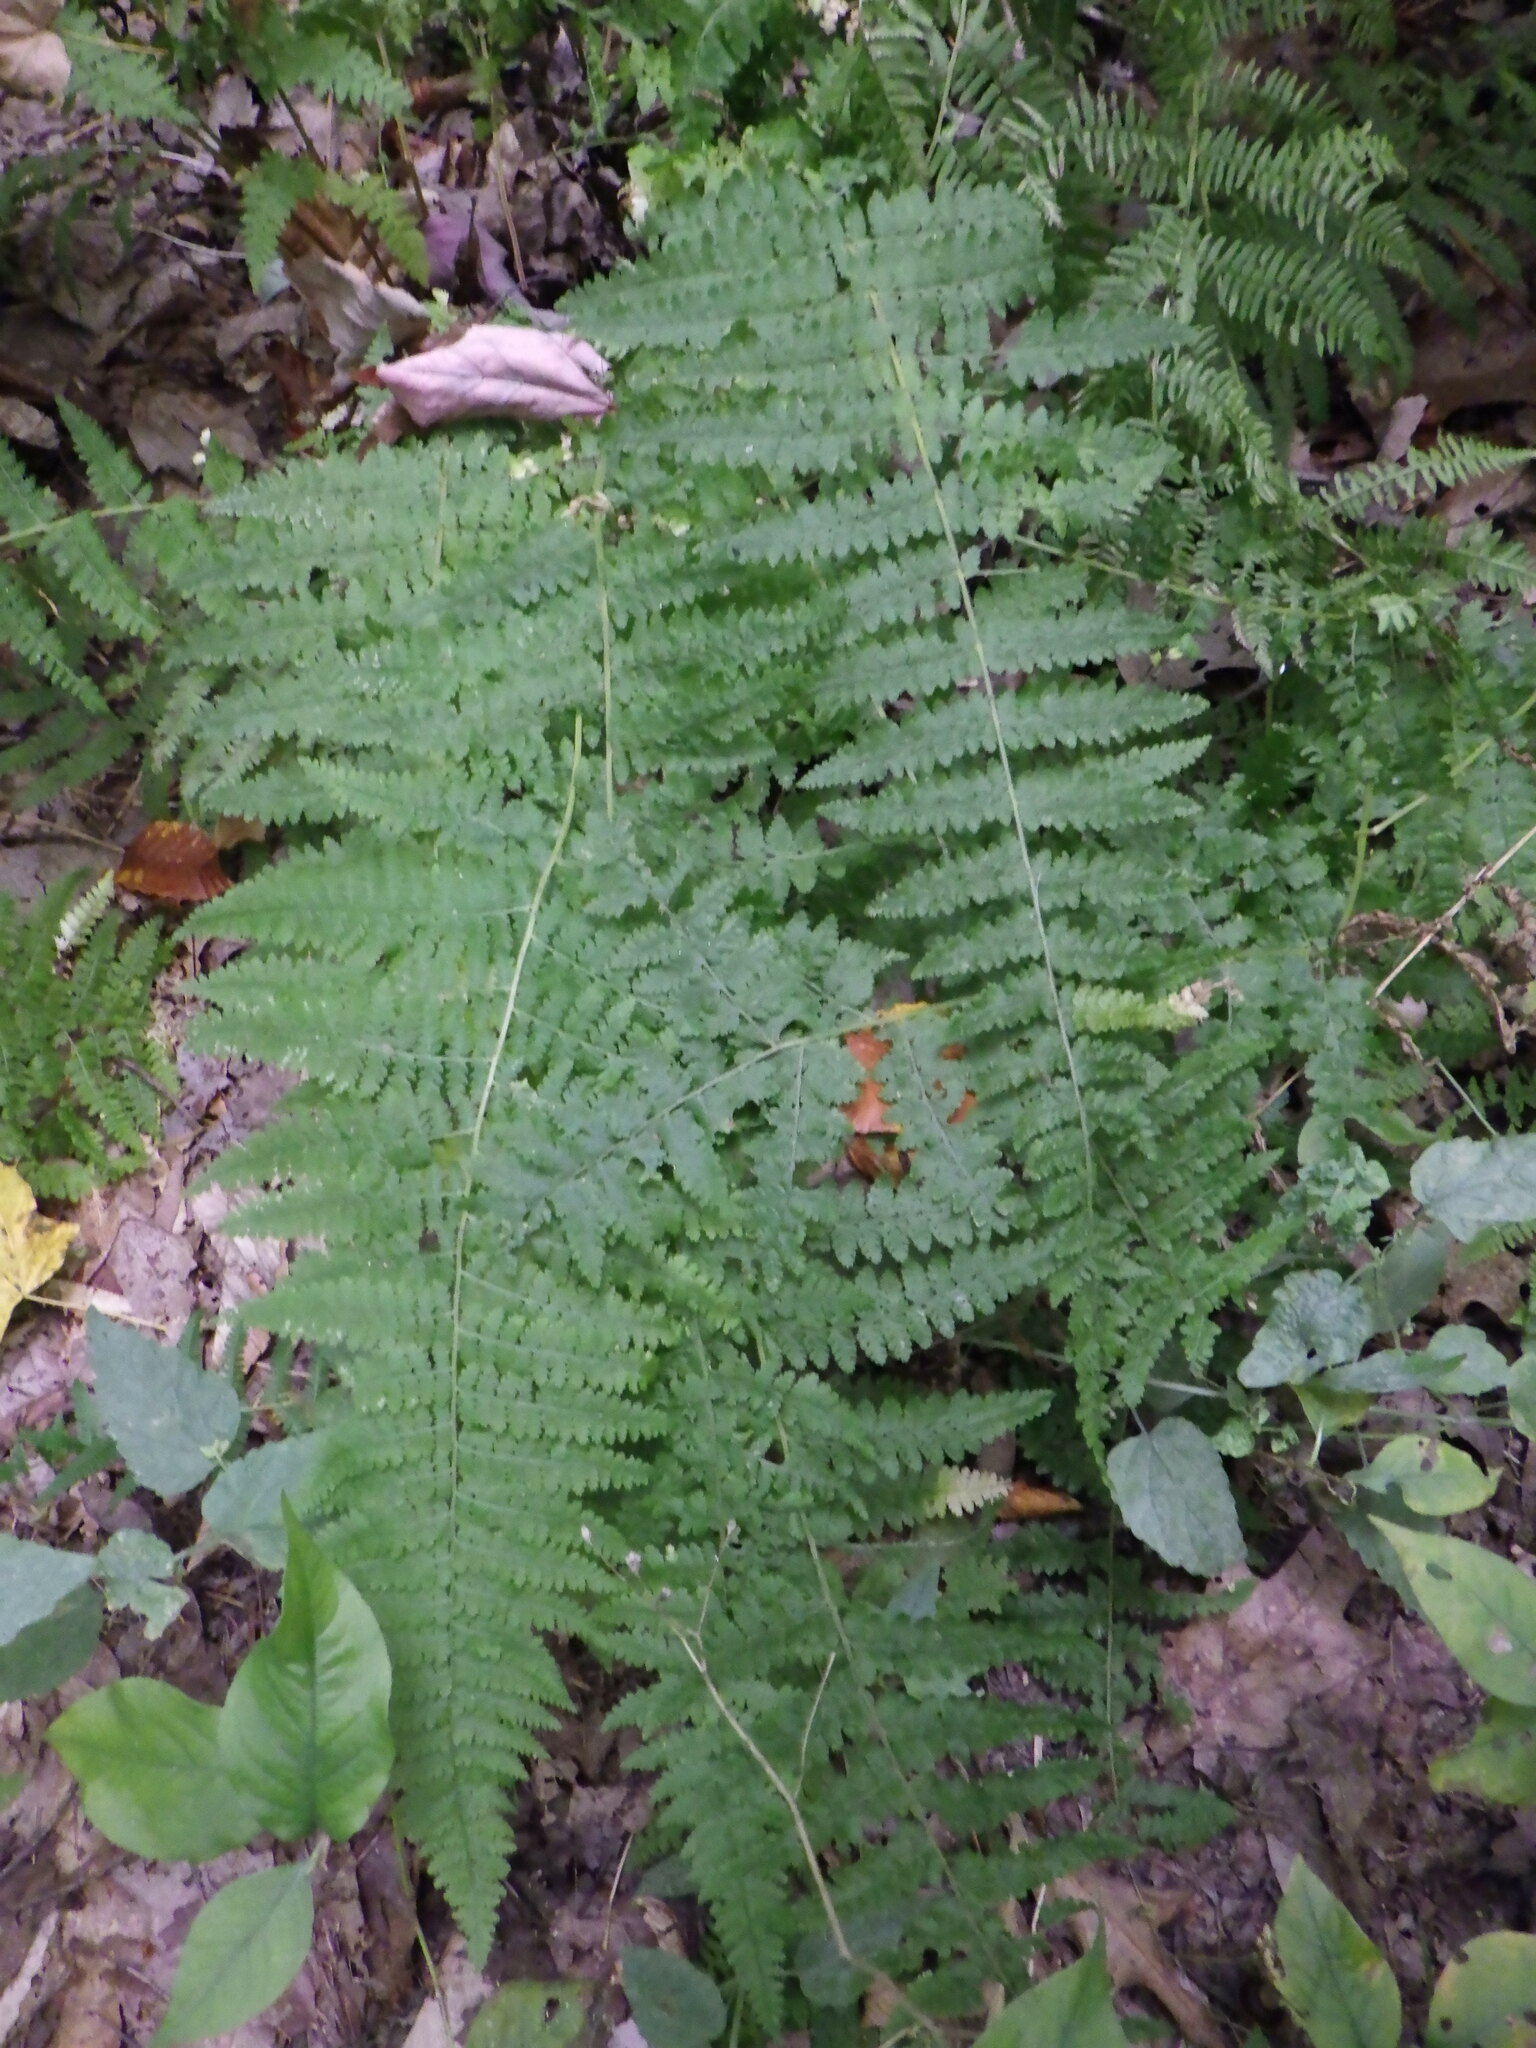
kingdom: Plantae
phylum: Tracheophyta
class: Polypodiopsida
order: Polypodiales
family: Dennstaedtiaceae
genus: Sitobolium
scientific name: Sitobolium punctilobum
